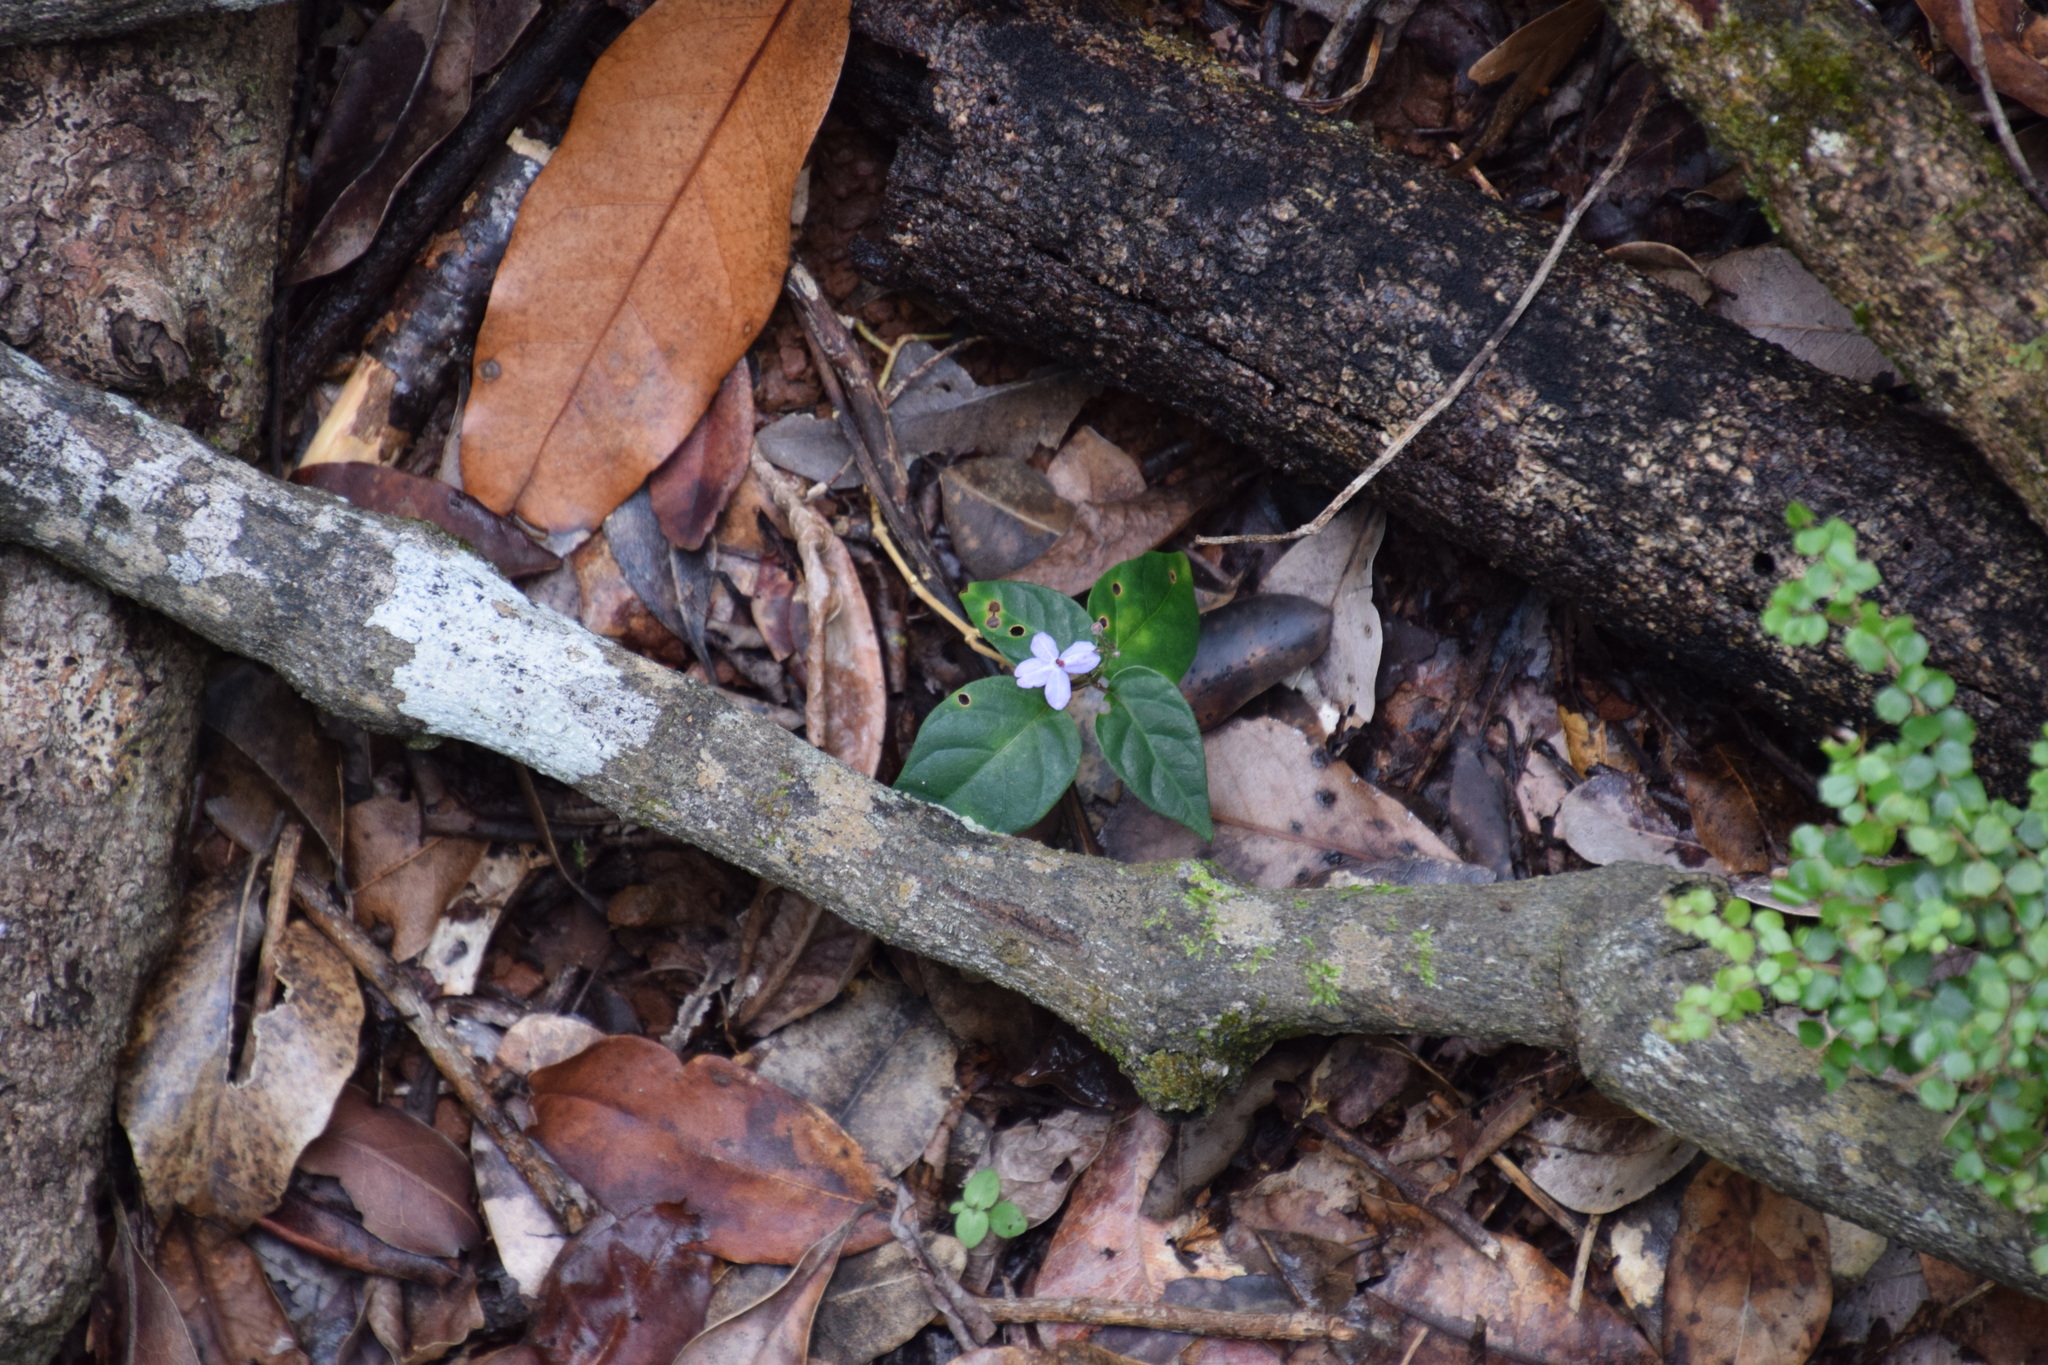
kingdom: Plantae
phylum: Tracheophyta
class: Magnoliopsida
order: Lamiales
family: Acanthaceae
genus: Pseuderanthemum
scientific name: Pseuderanthemum variabile
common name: Night and afternoon
